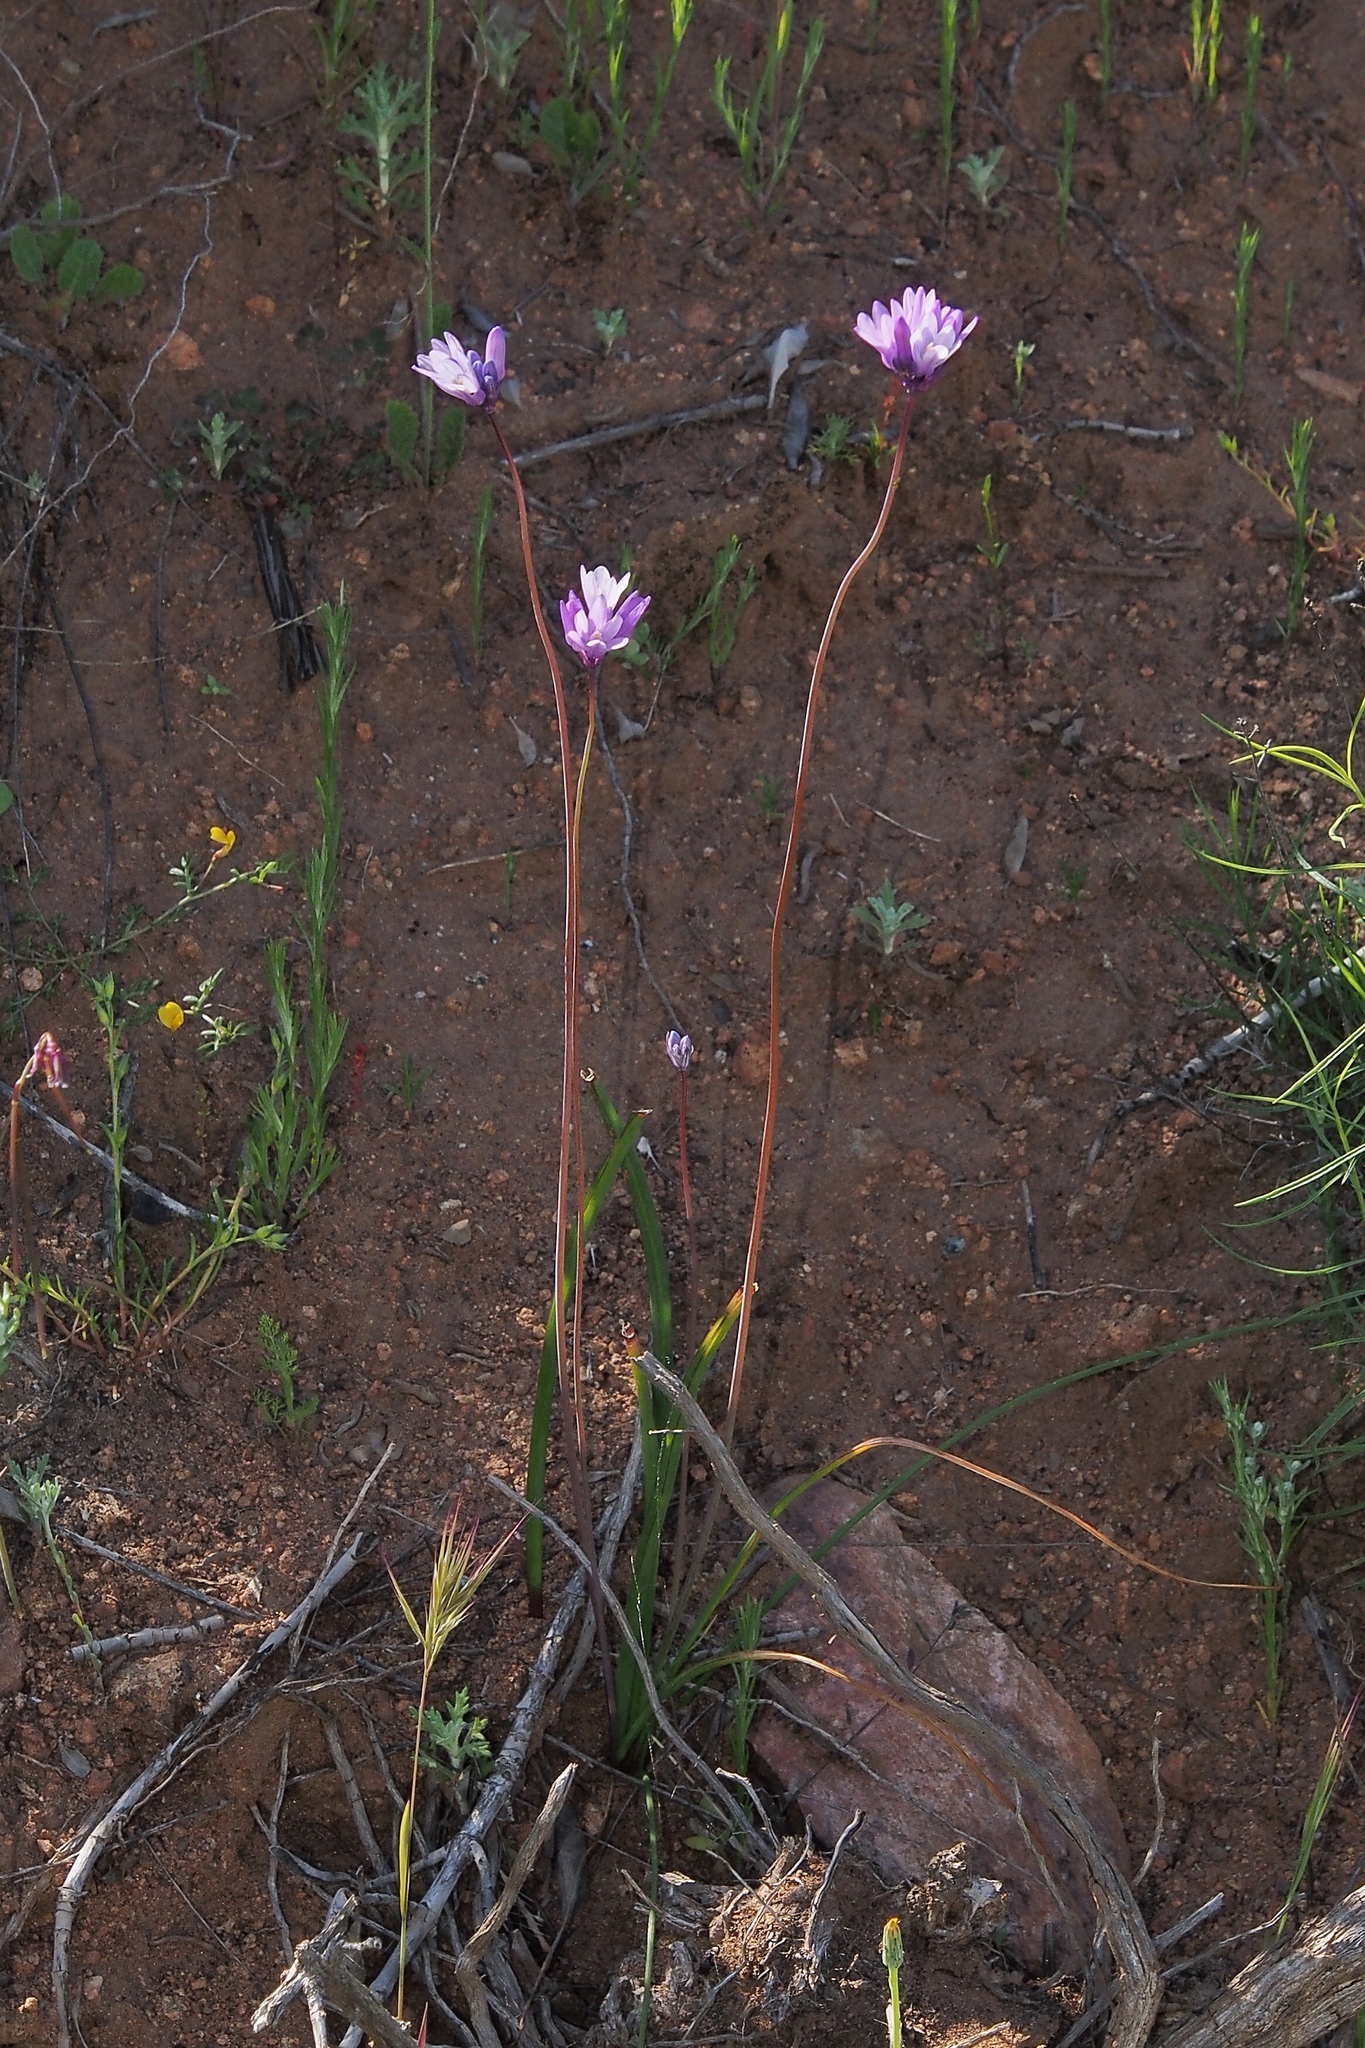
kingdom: Plantae
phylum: Tracheophyta
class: Liliopsida
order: Asparagales
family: Asparagaceae
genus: Dipterostemon
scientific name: Dipterostemon capitatus
